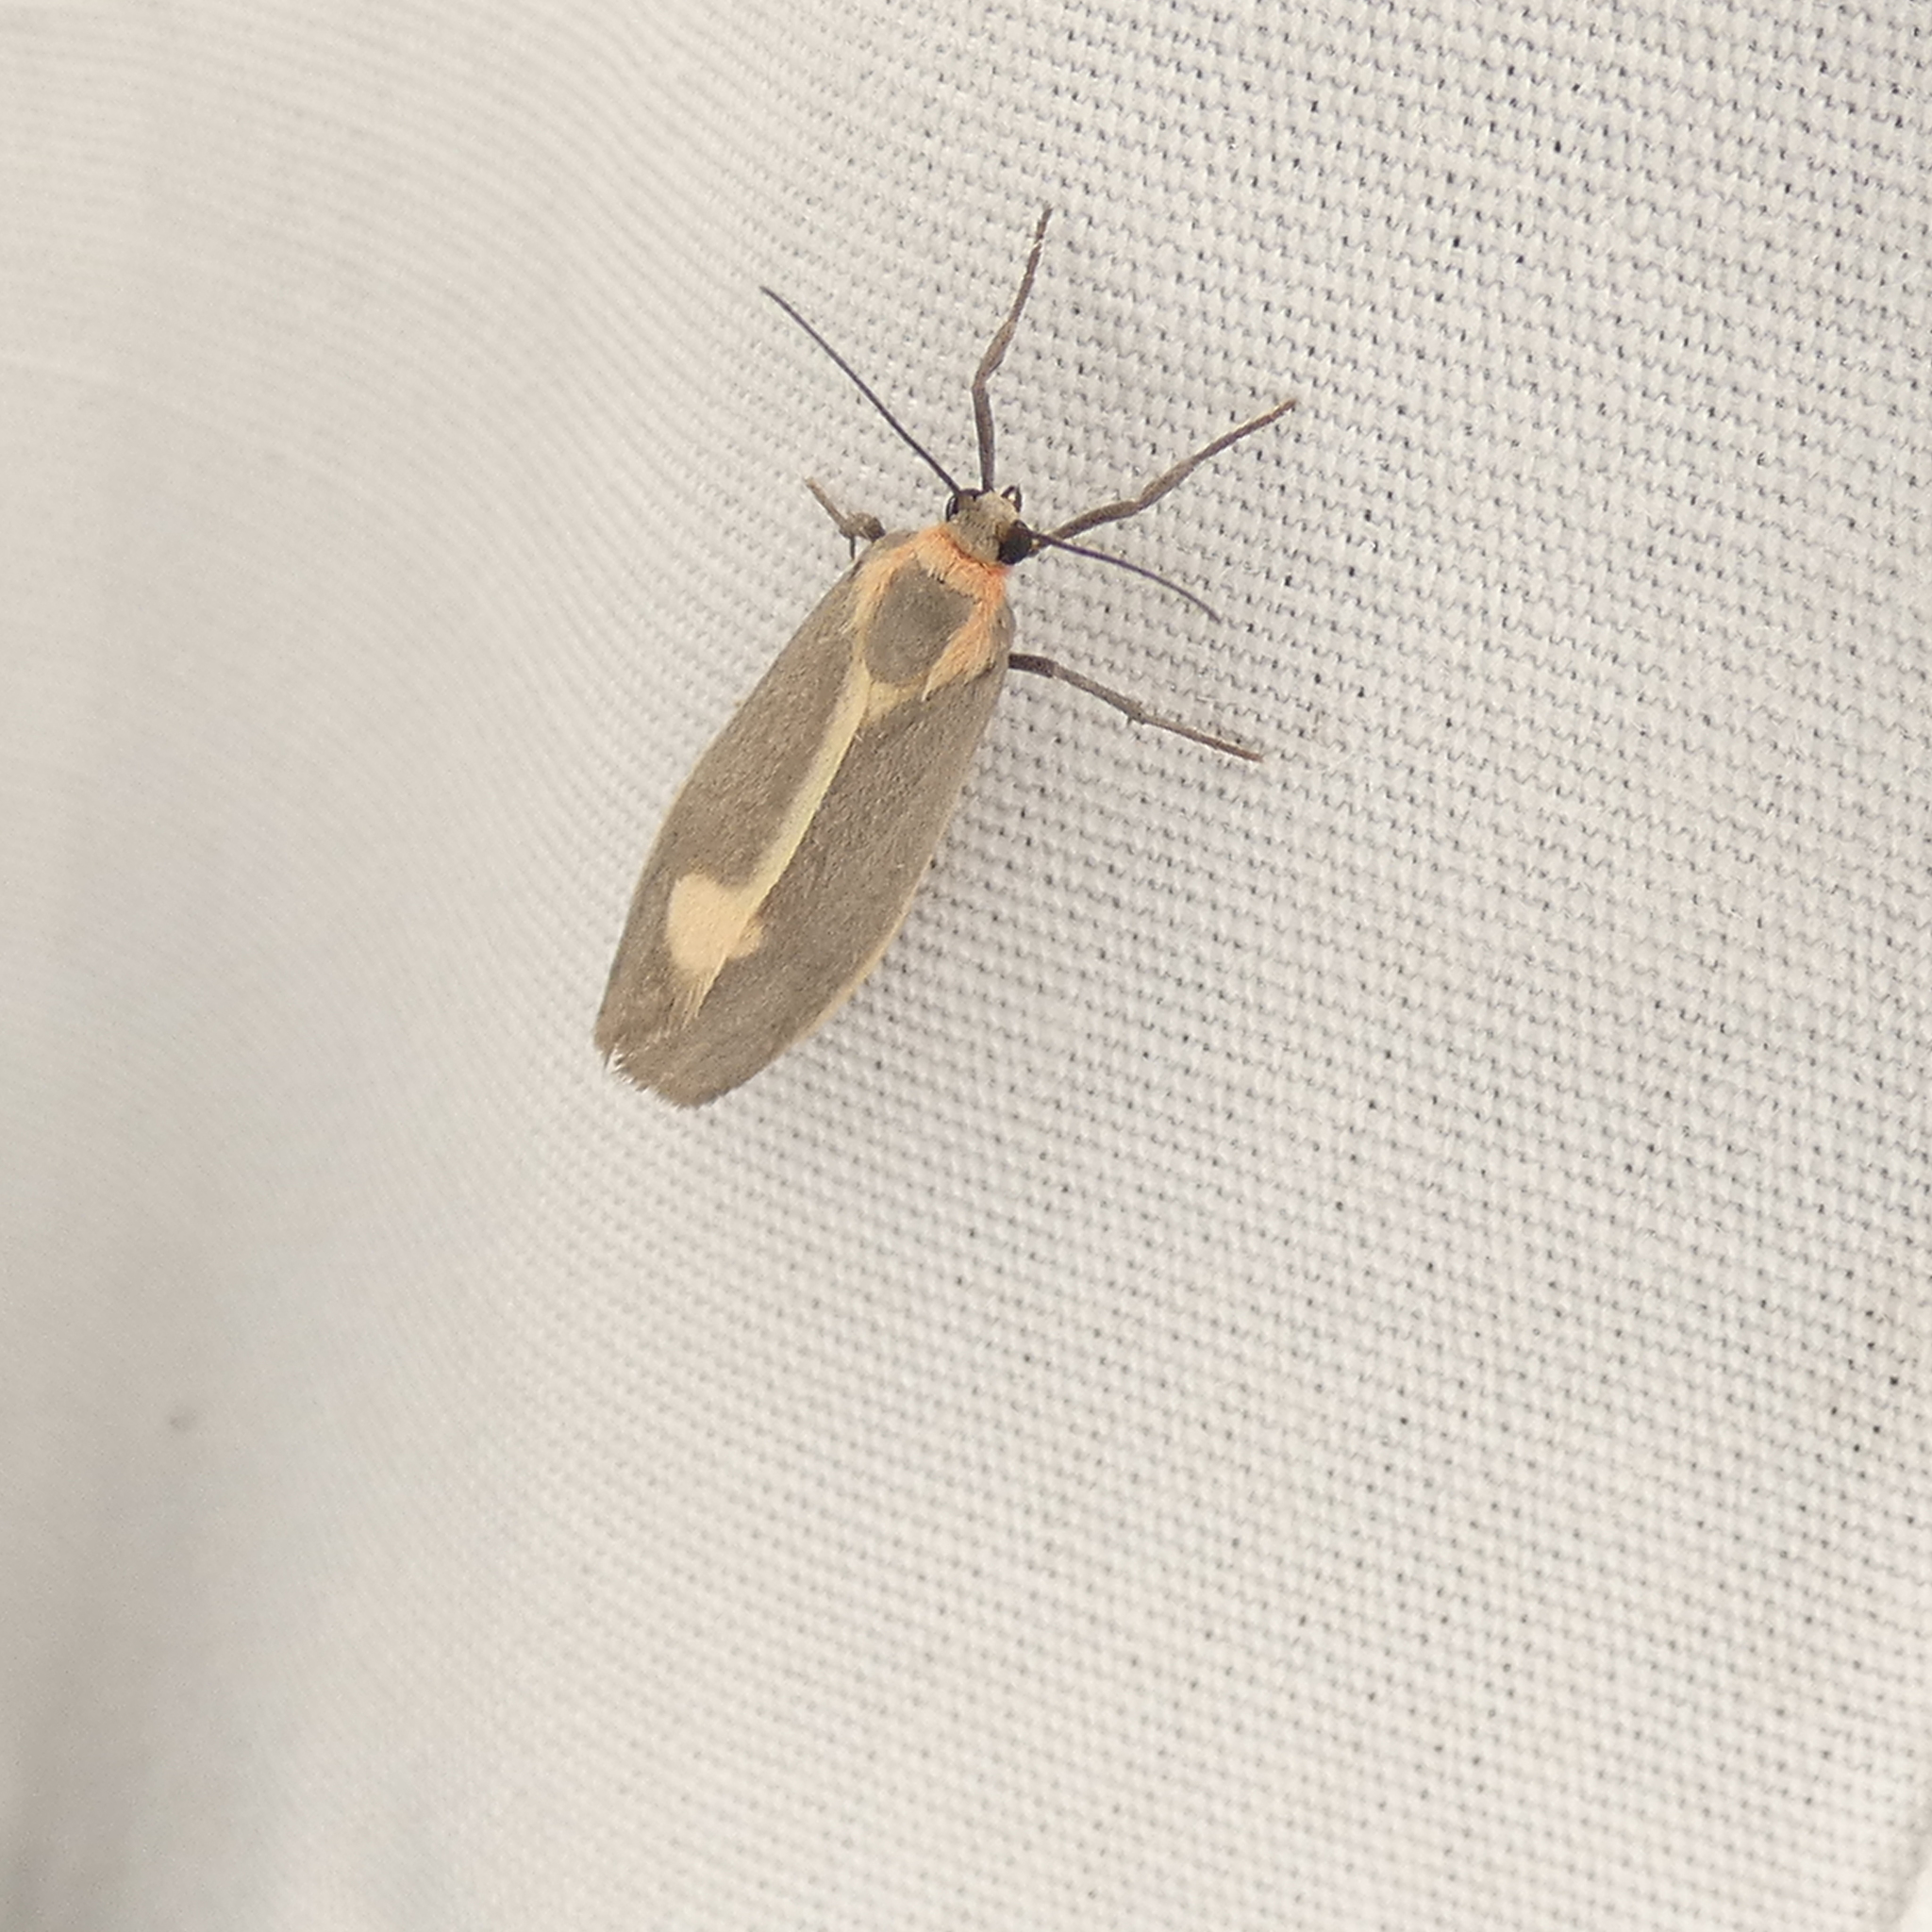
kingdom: Animalia
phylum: Arthropoda
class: Insecta
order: Lepidoptera
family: Erebidae
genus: Cisthene
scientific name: Cisthene plumbea
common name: Lead colored lichen moth
